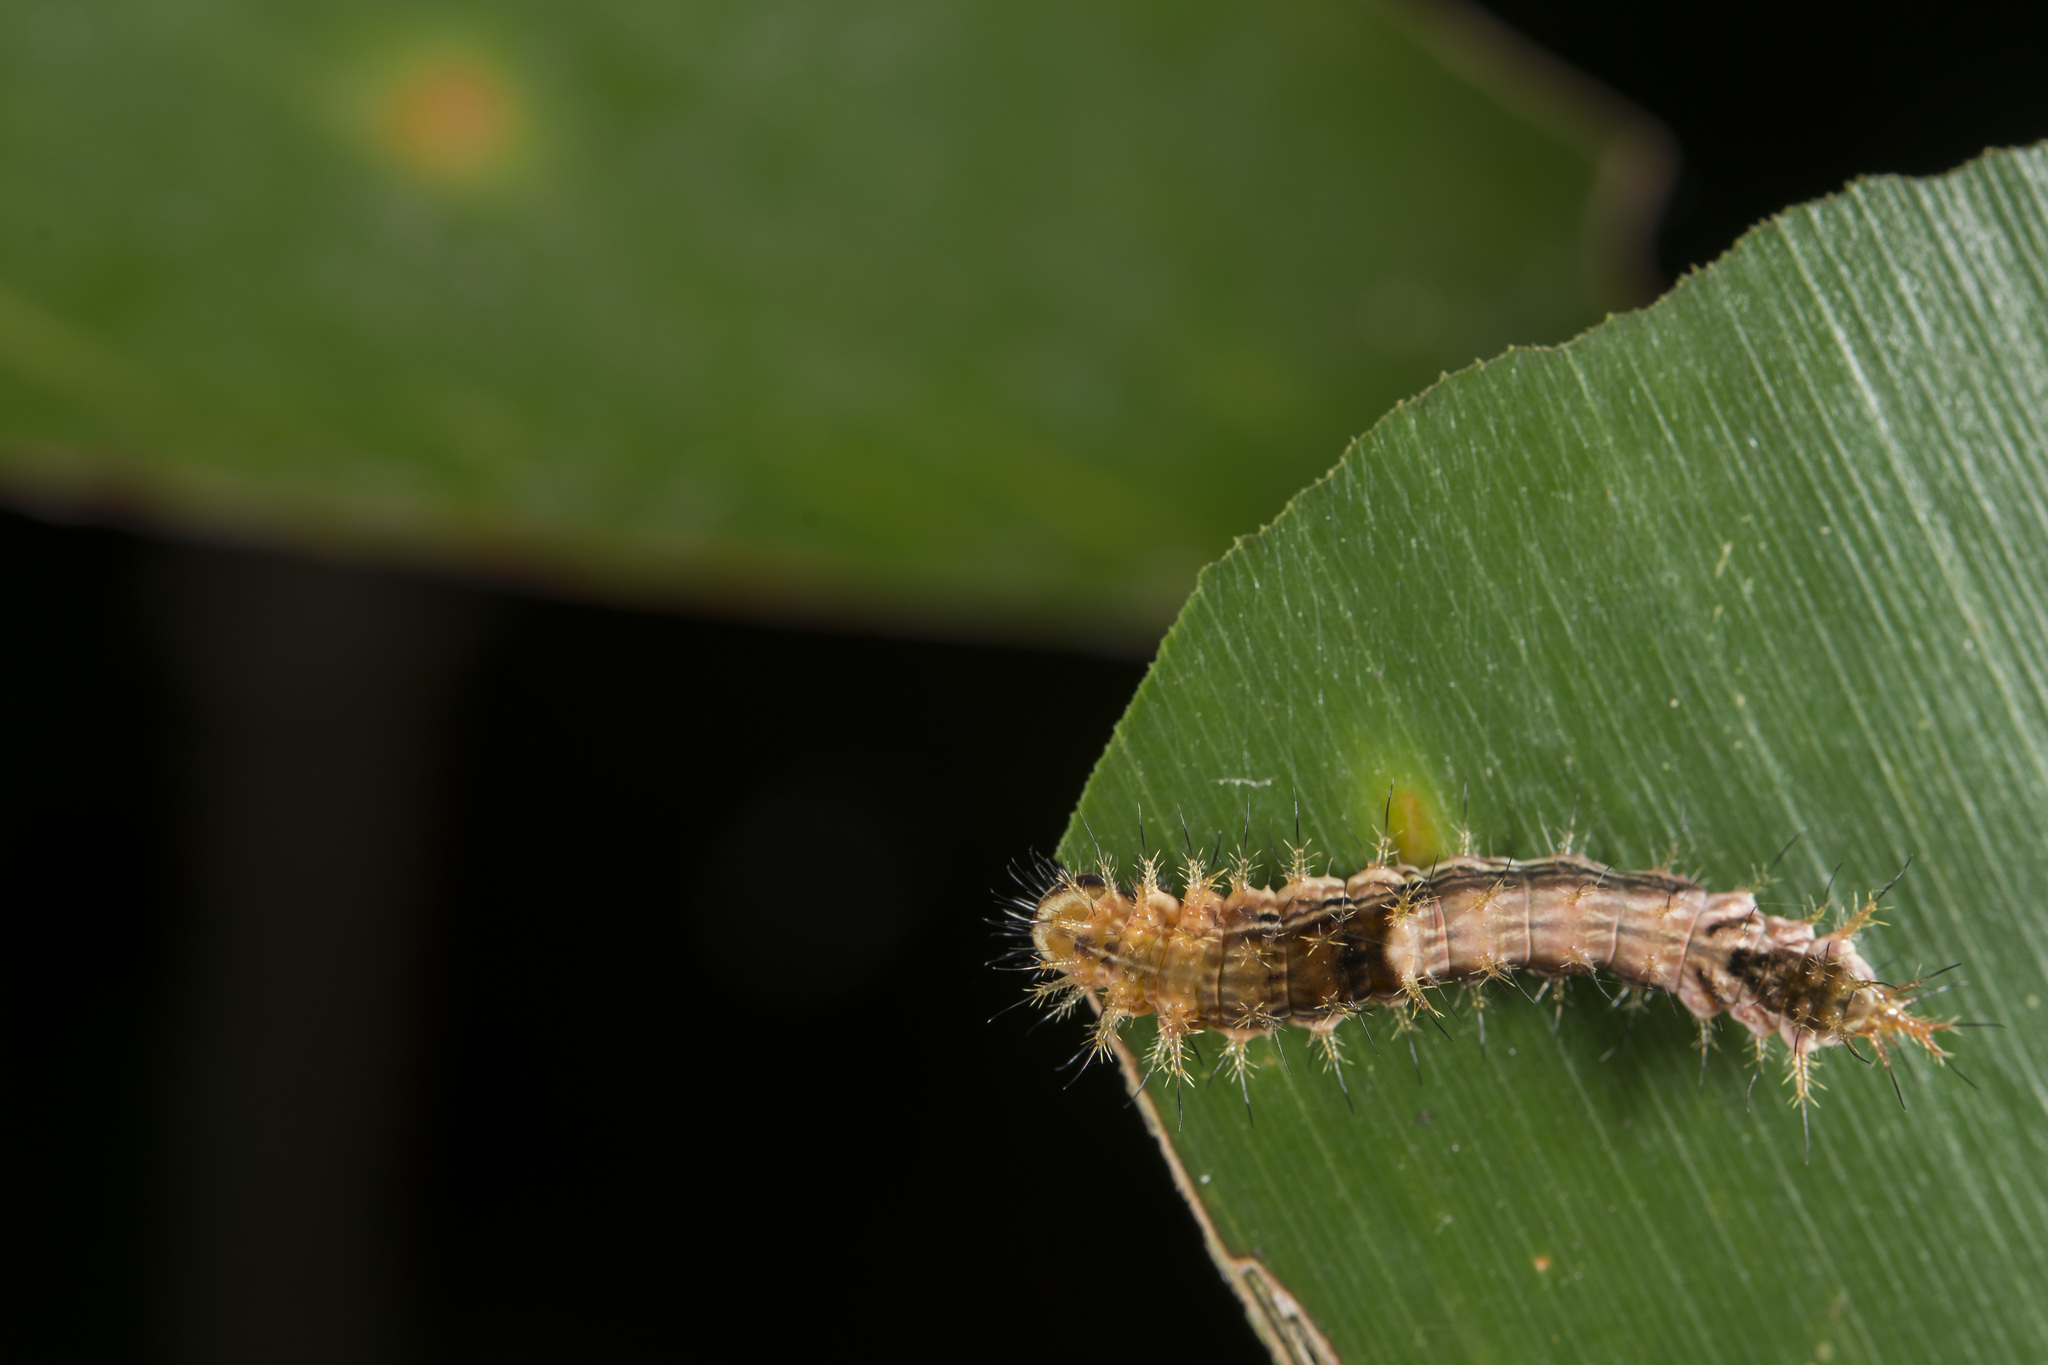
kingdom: Animalia
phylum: Arthropoda
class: Insecta
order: Lepidoptera
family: Drepanidae
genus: Drapetodes
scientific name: Drapetodes mitaria
